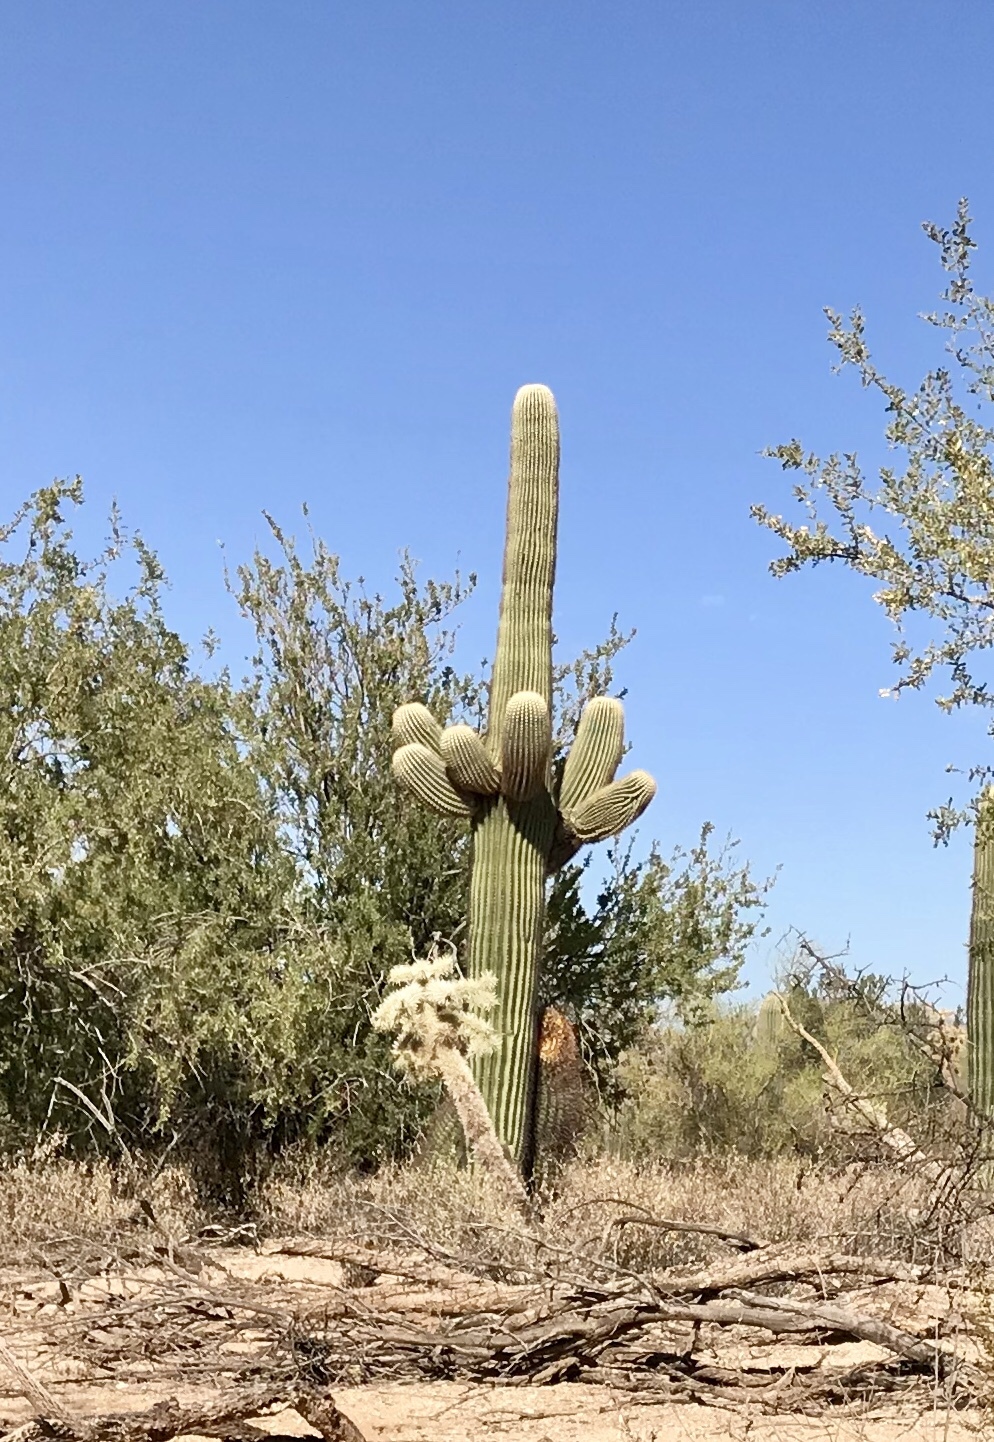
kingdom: Plantae
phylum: Tracheophyta
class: Magnoliopsida
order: Caryophyllales
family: Cactaceae
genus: Carnegiea
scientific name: Carnegiea gigantea
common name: Saguaro
